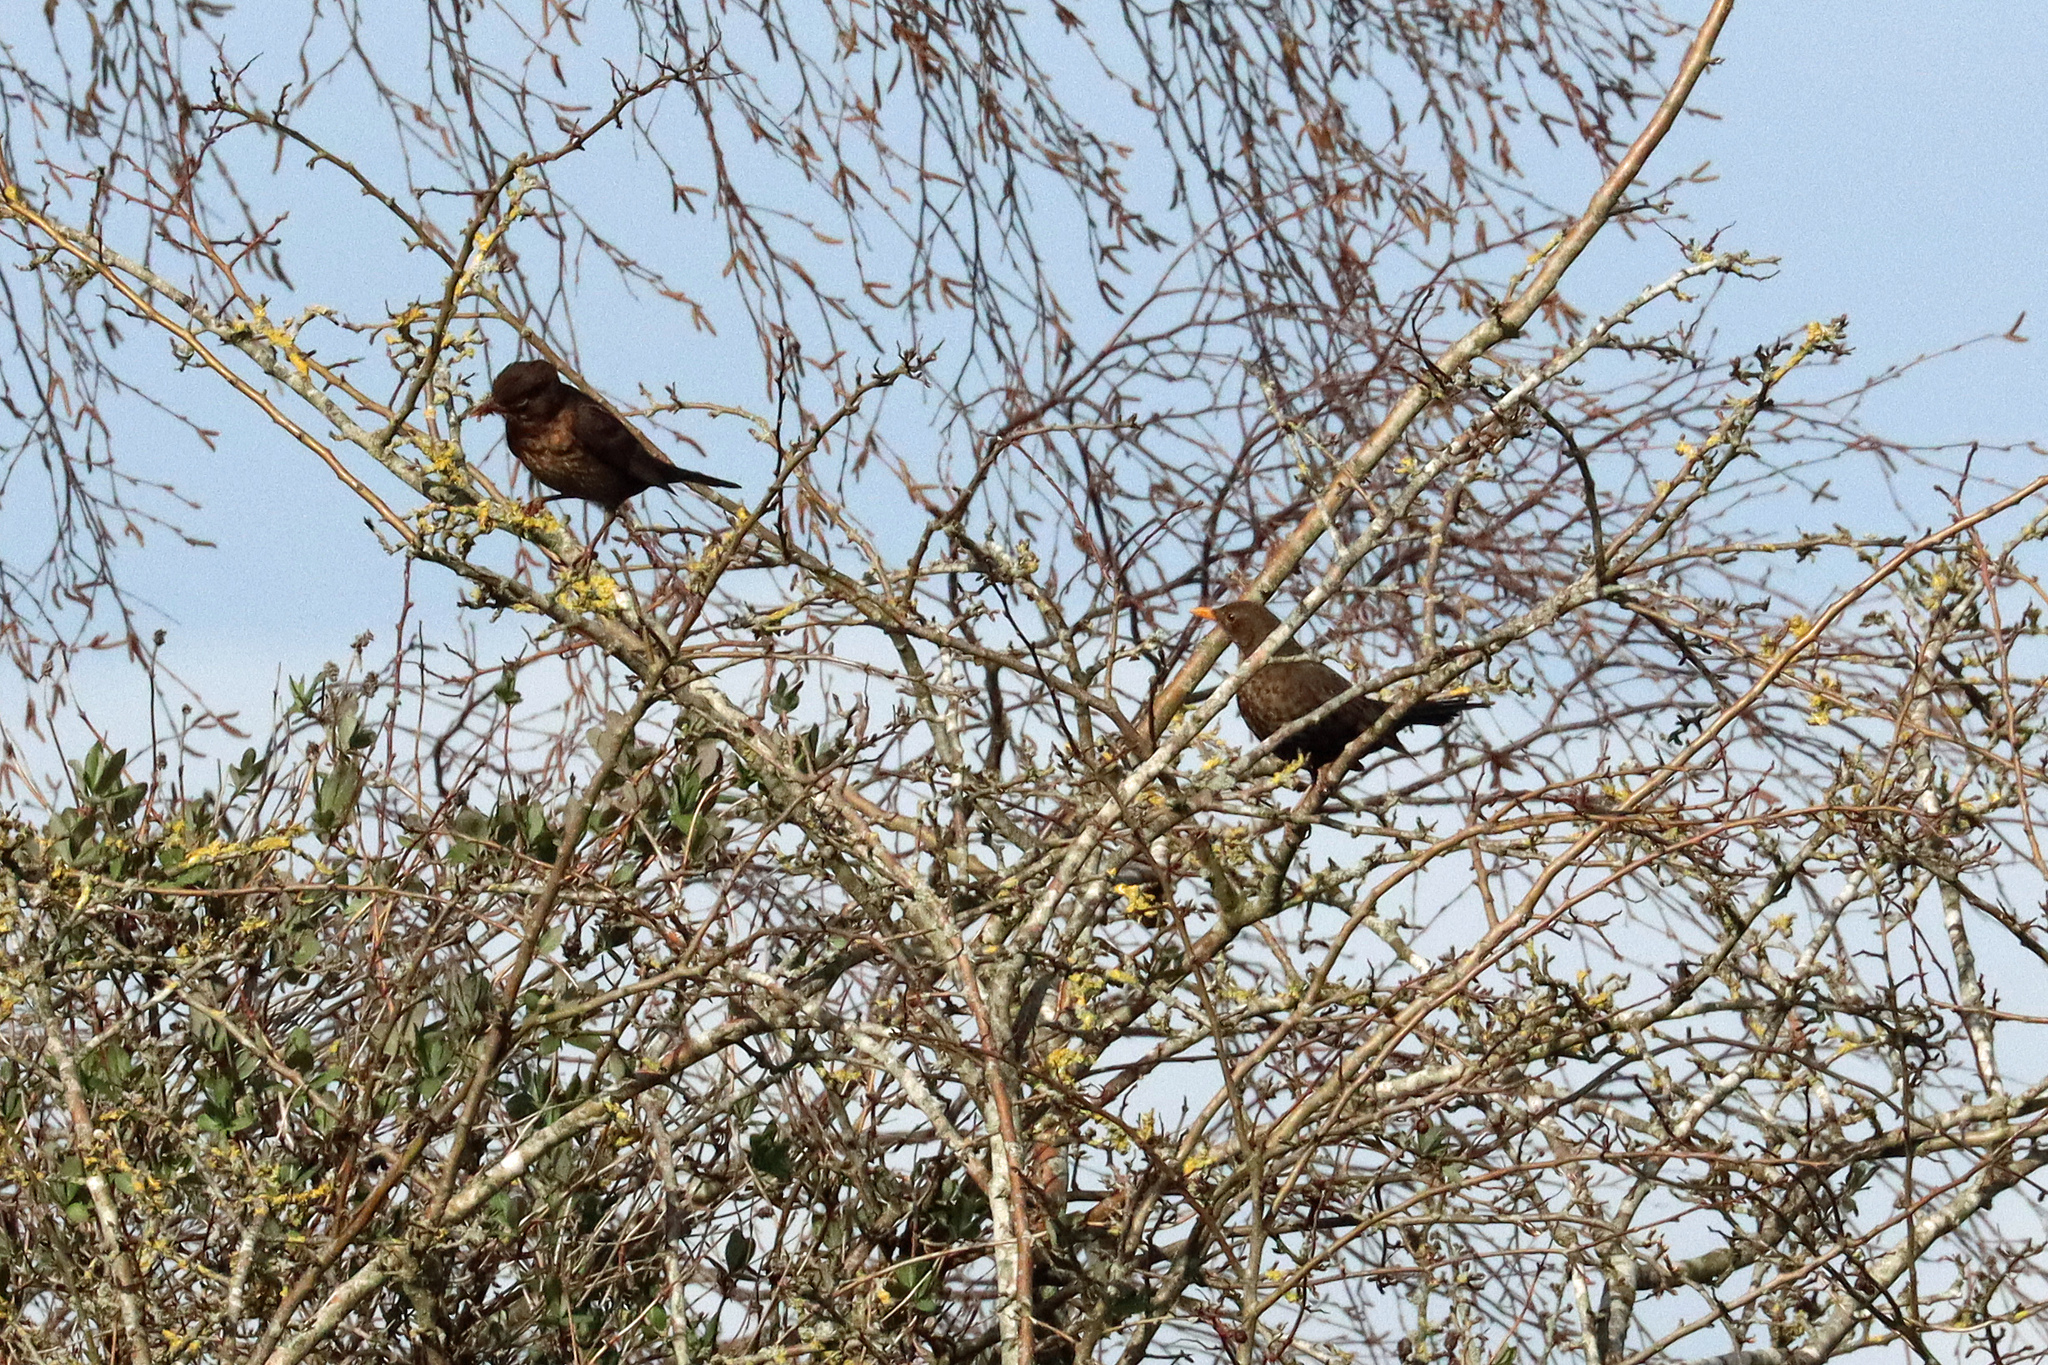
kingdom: Animalia
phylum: Chordata
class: Aves
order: Passeriformes
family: Turdidae
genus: Turdus
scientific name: Turdus merula
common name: Common blackbird
